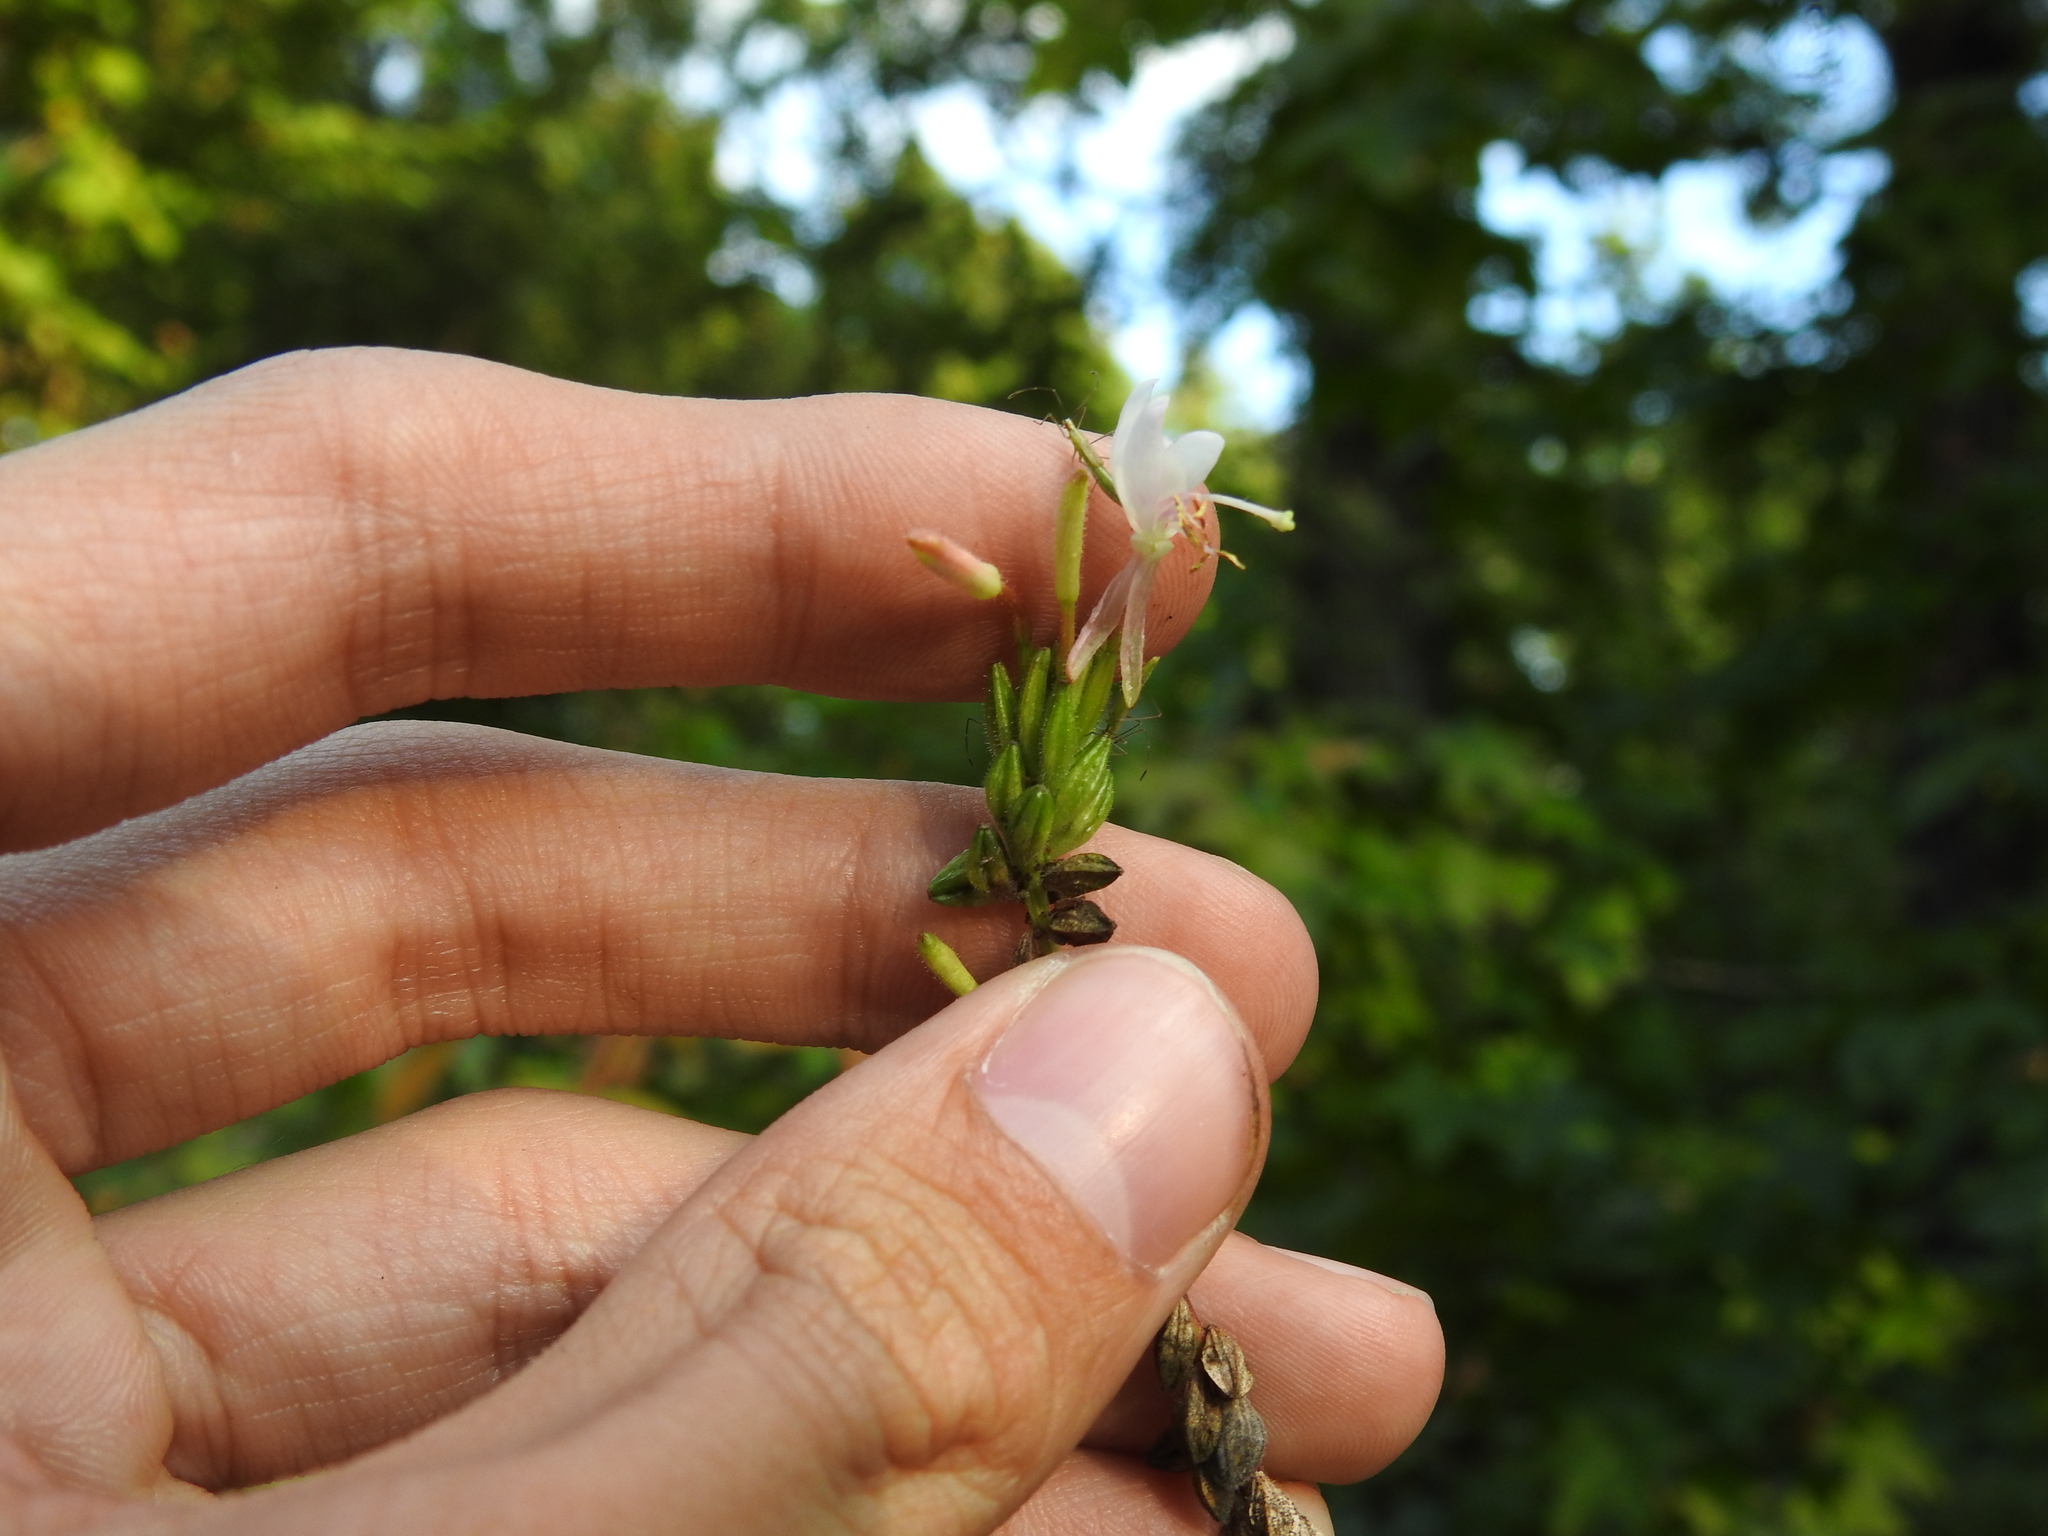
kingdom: Plantae
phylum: Tracheophyta
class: Magnoliopsida
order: Myrtales
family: Onagraceae
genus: Oenothera
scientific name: Oenothera gaura
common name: Biennial beeblossom
